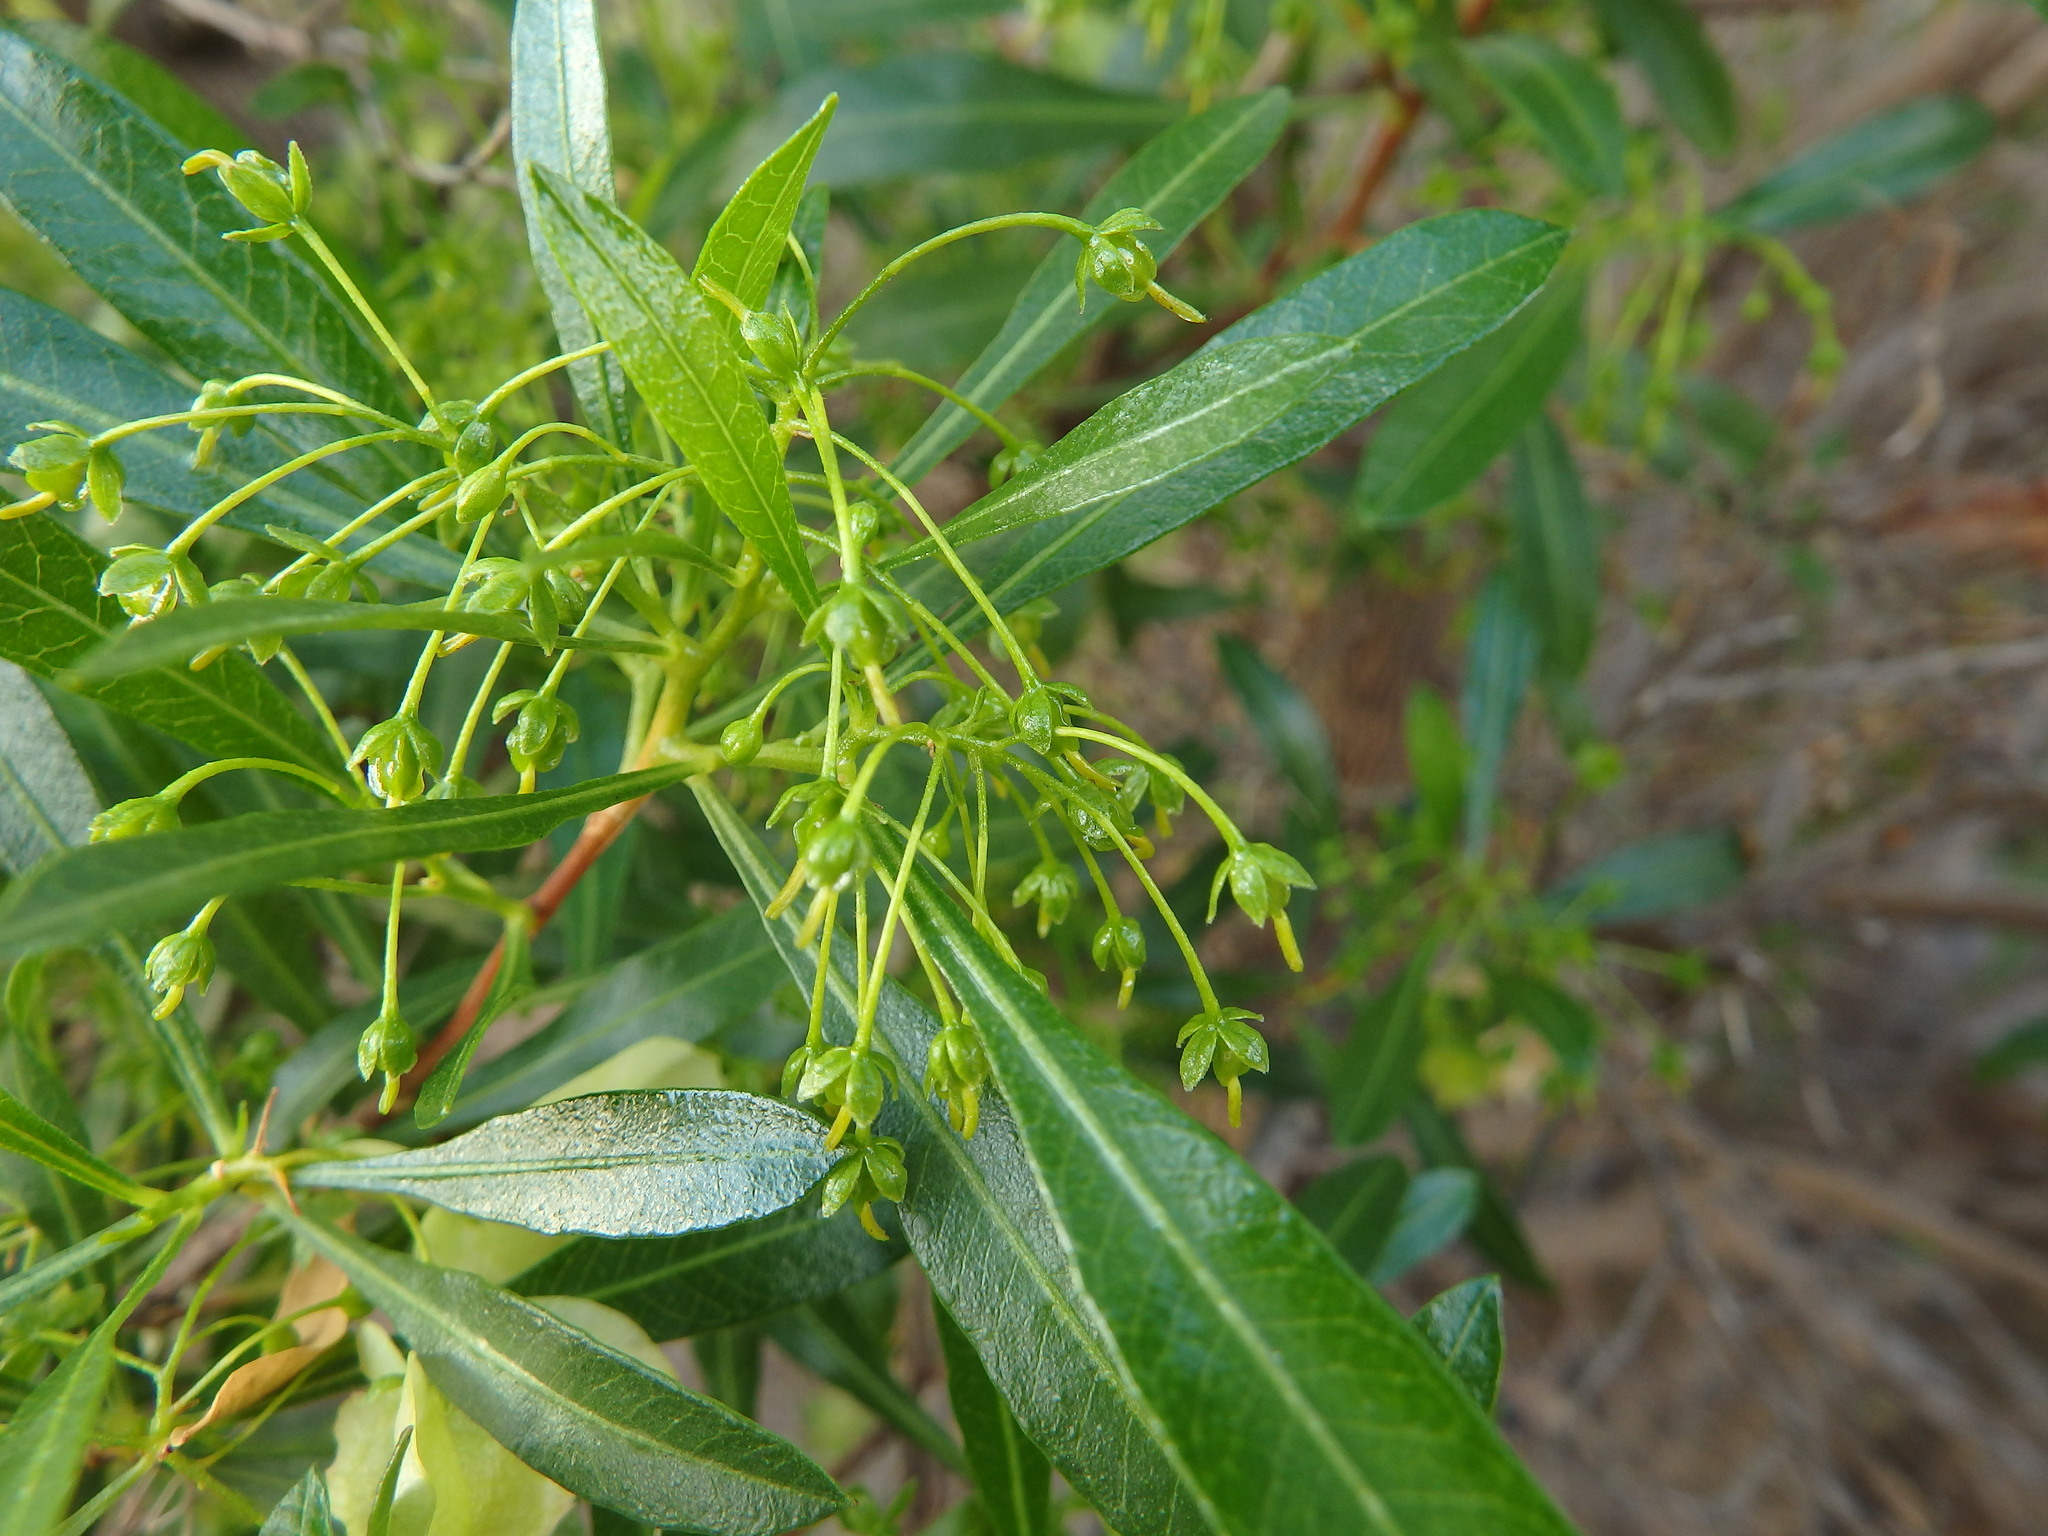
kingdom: Plantae
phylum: Tracheophyta
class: Magnoliopsida
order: Sapindales
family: Sapindaceae
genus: Dodonaea
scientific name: Dodonaea viscosa
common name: Hopbush
